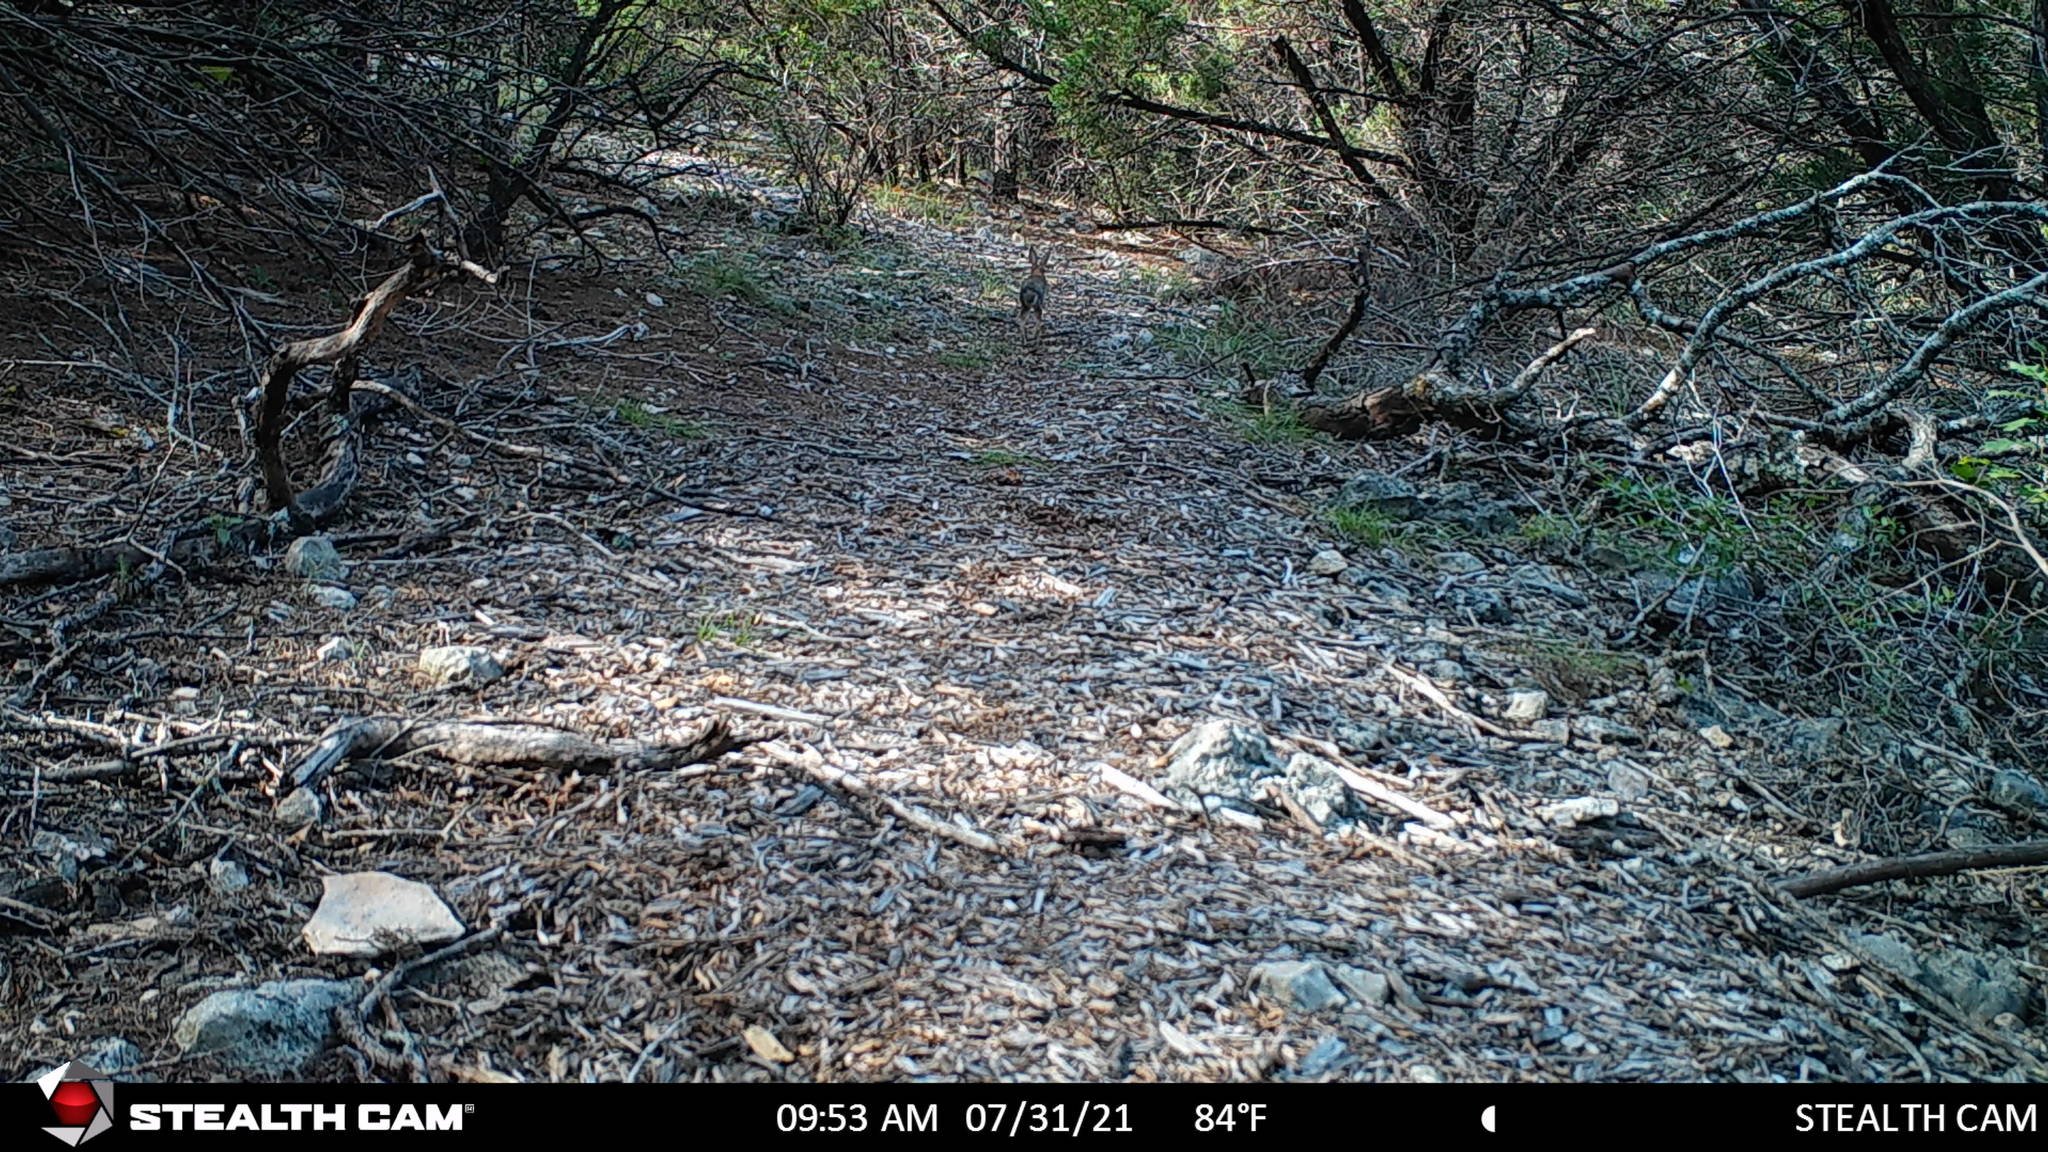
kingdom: Animalia
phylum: Chordata
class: Mammalia
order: Lagomorpha
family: Leporidae
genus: Sylvilagus
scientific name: Sylvilagus floridanus
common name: Eastern cottontail
